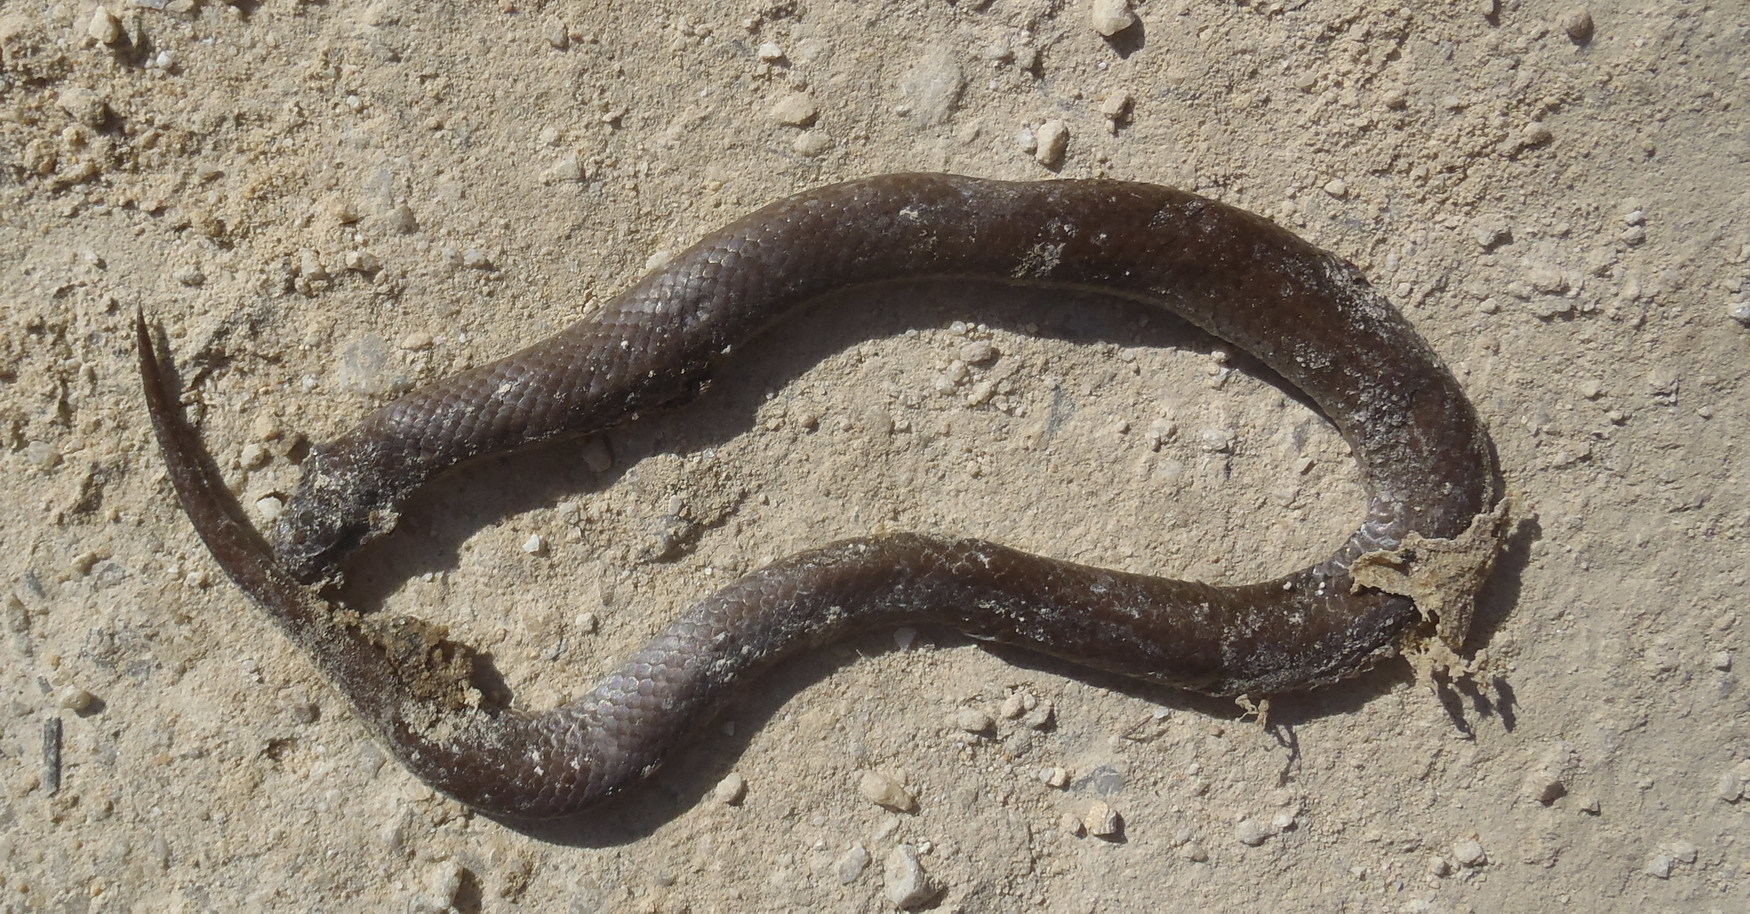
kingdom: Animalia
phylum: Chordata
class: Squamata
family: Pseudoxyrhophiidae
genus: Duberria
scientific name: Duberria lutrix
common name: Common slug eater
